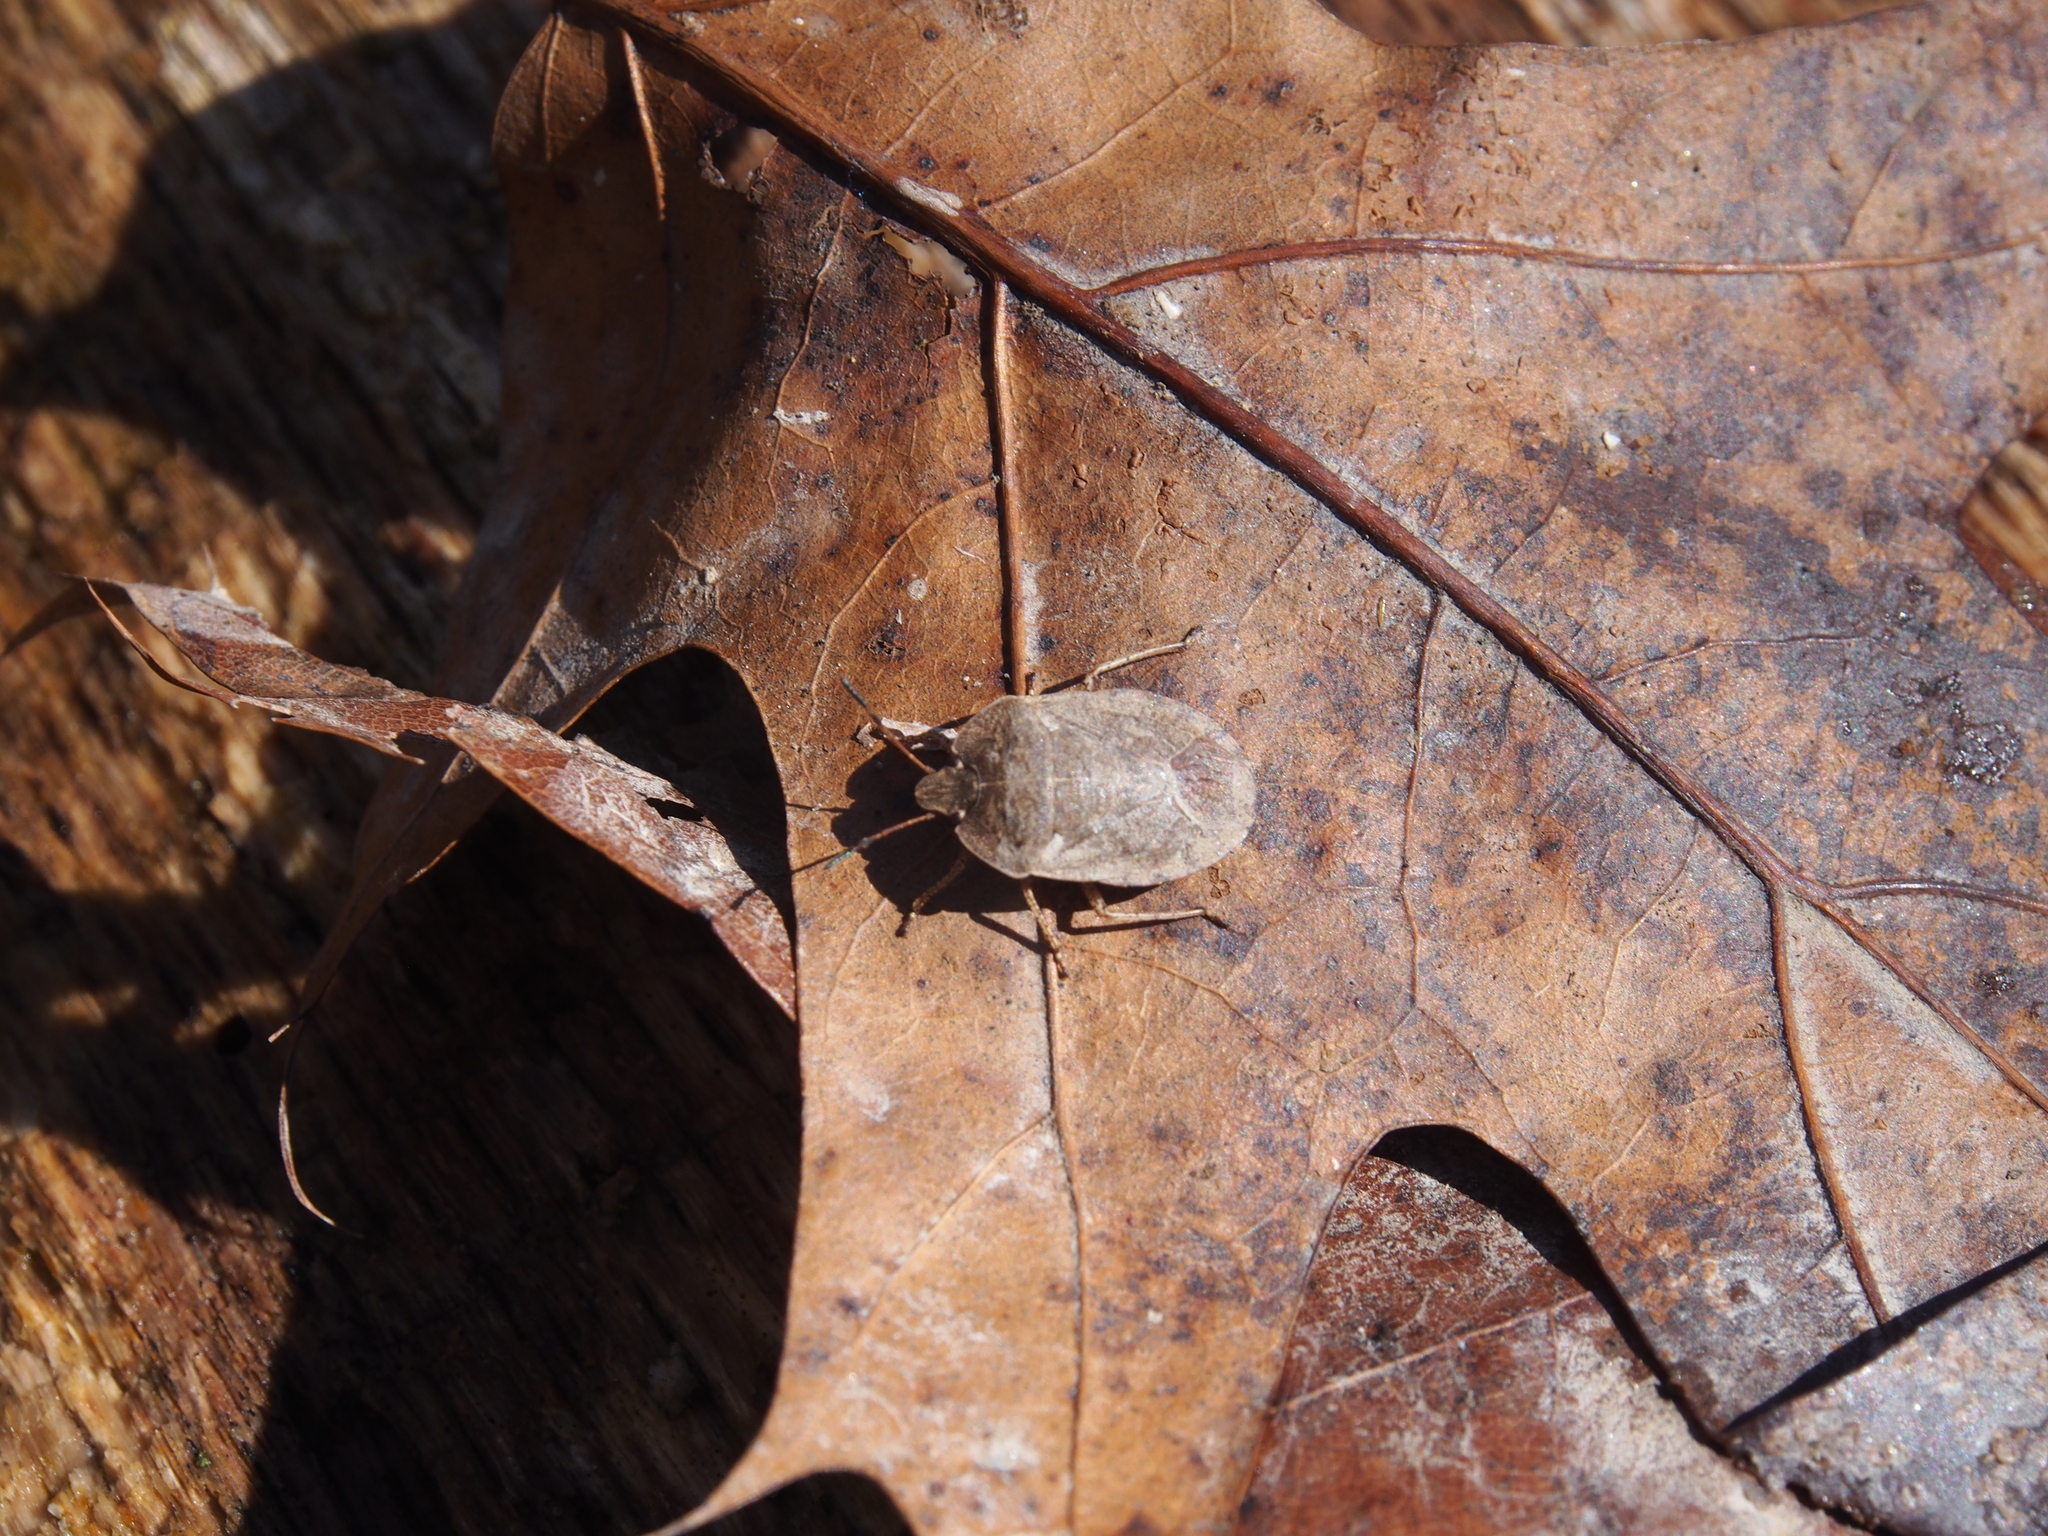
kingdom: Animalia
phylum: Arthropoda
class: Insecta
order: Hemiptera
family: Pentatomidae
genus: Menecles
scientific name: Menecles insertus
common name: Elf shoe stink bug
